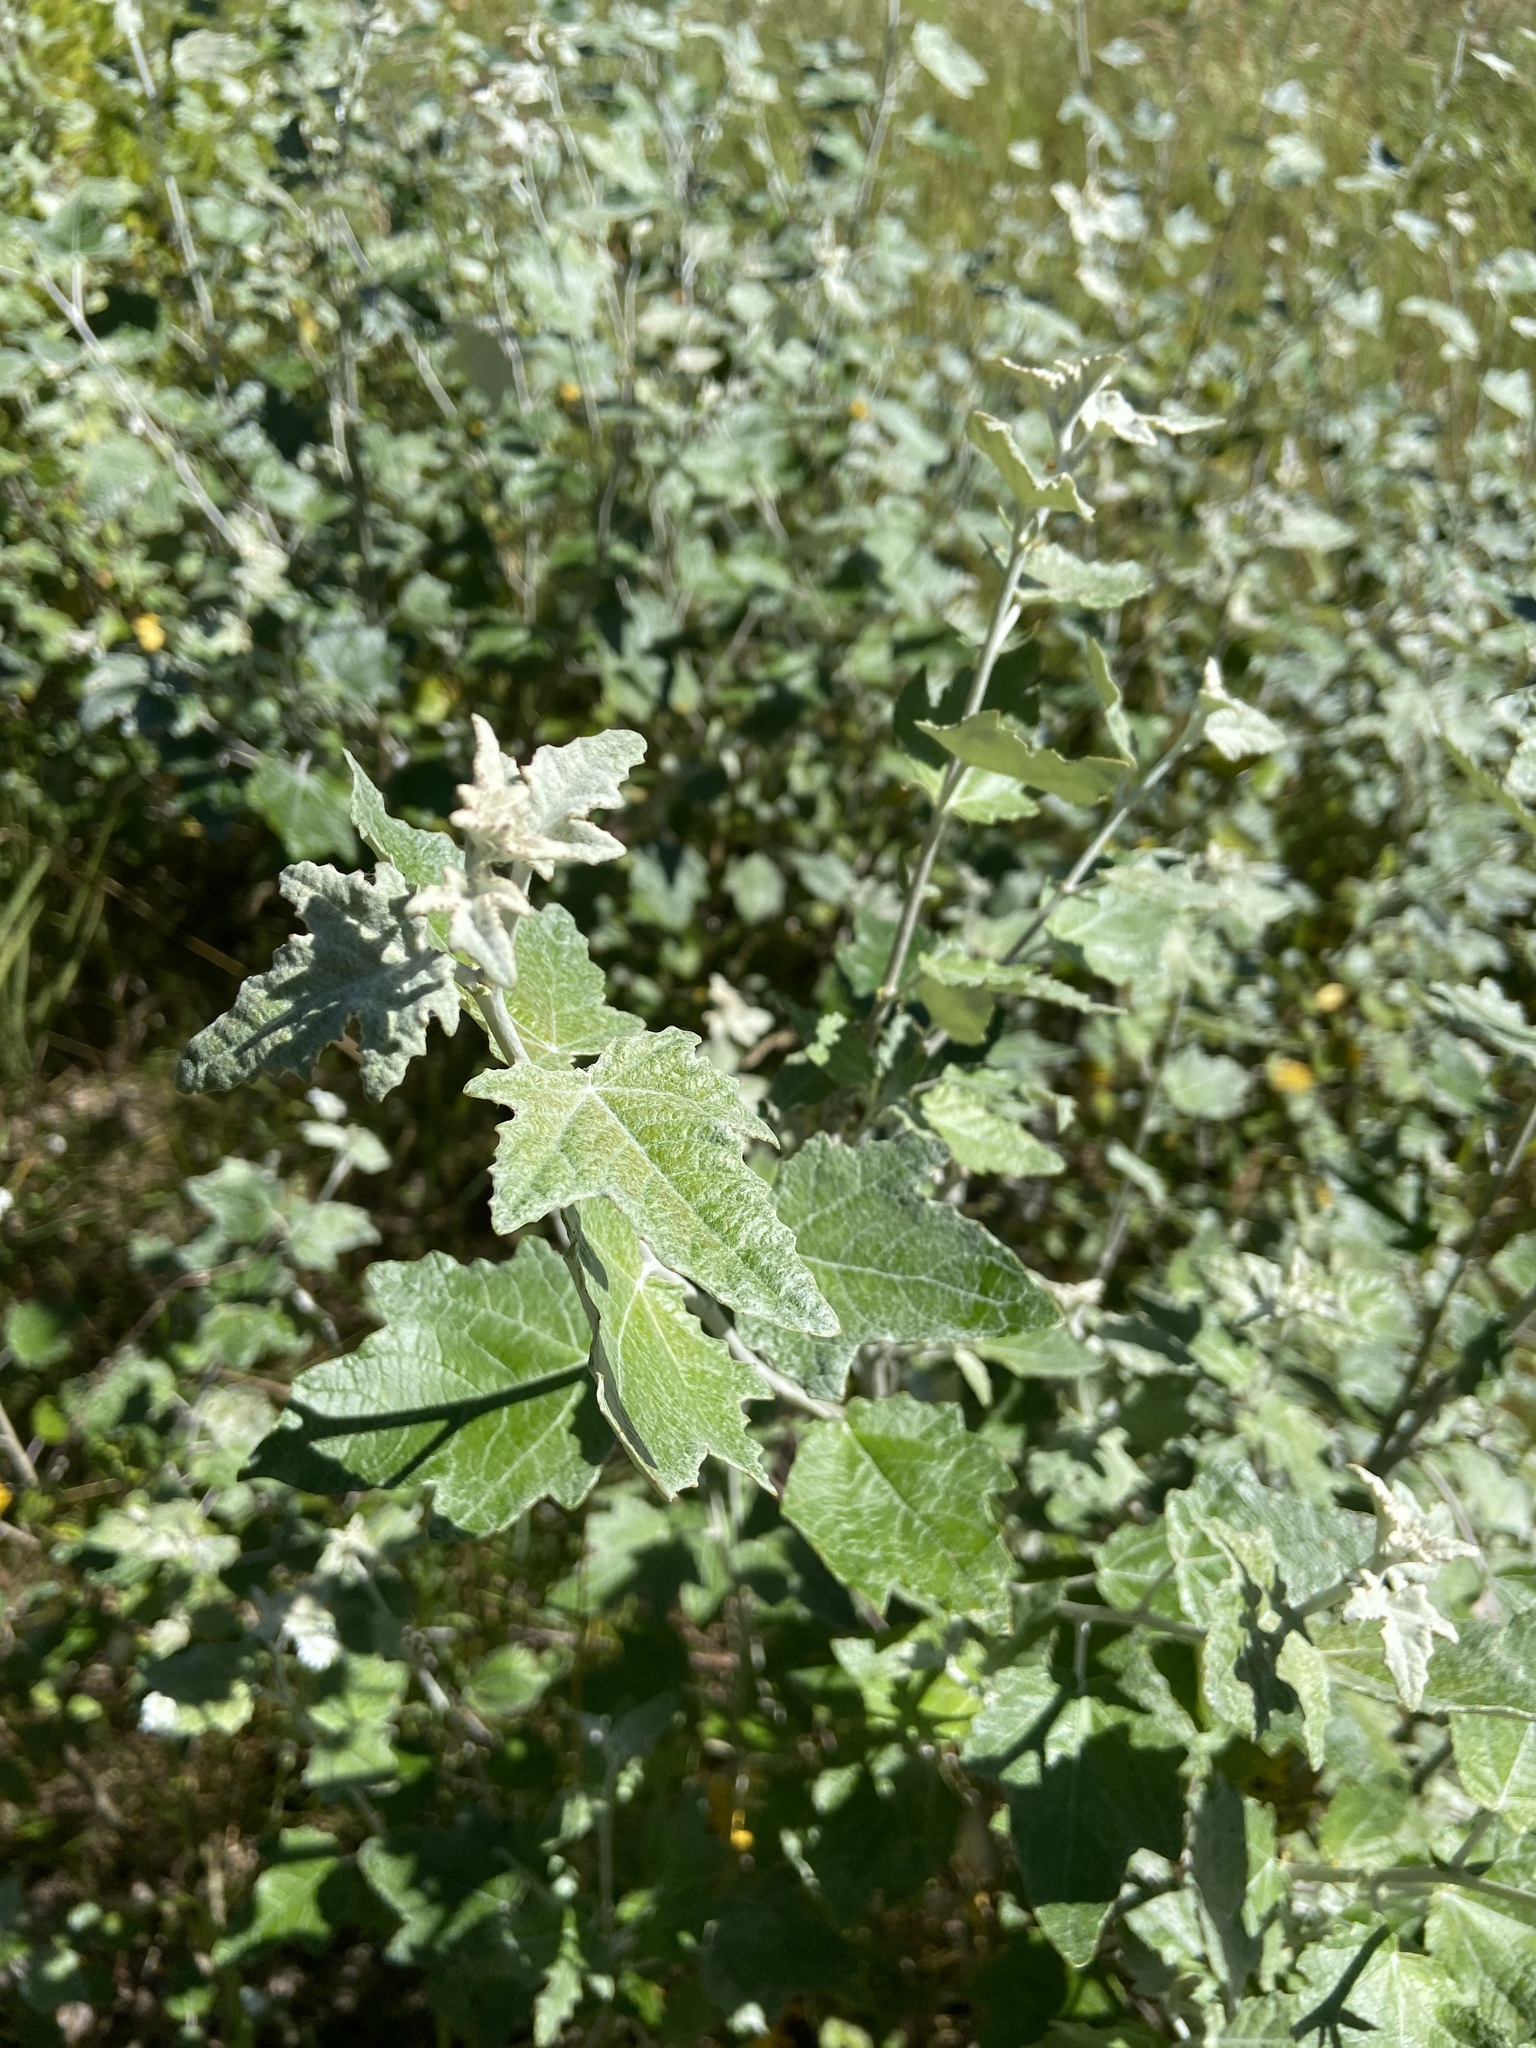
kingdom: Plantae
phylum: Tracheophyta
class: Magnoliopsida
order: Malpighiales
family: Salicaceae
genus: Populus
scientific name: Populus alba
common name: White poplar
